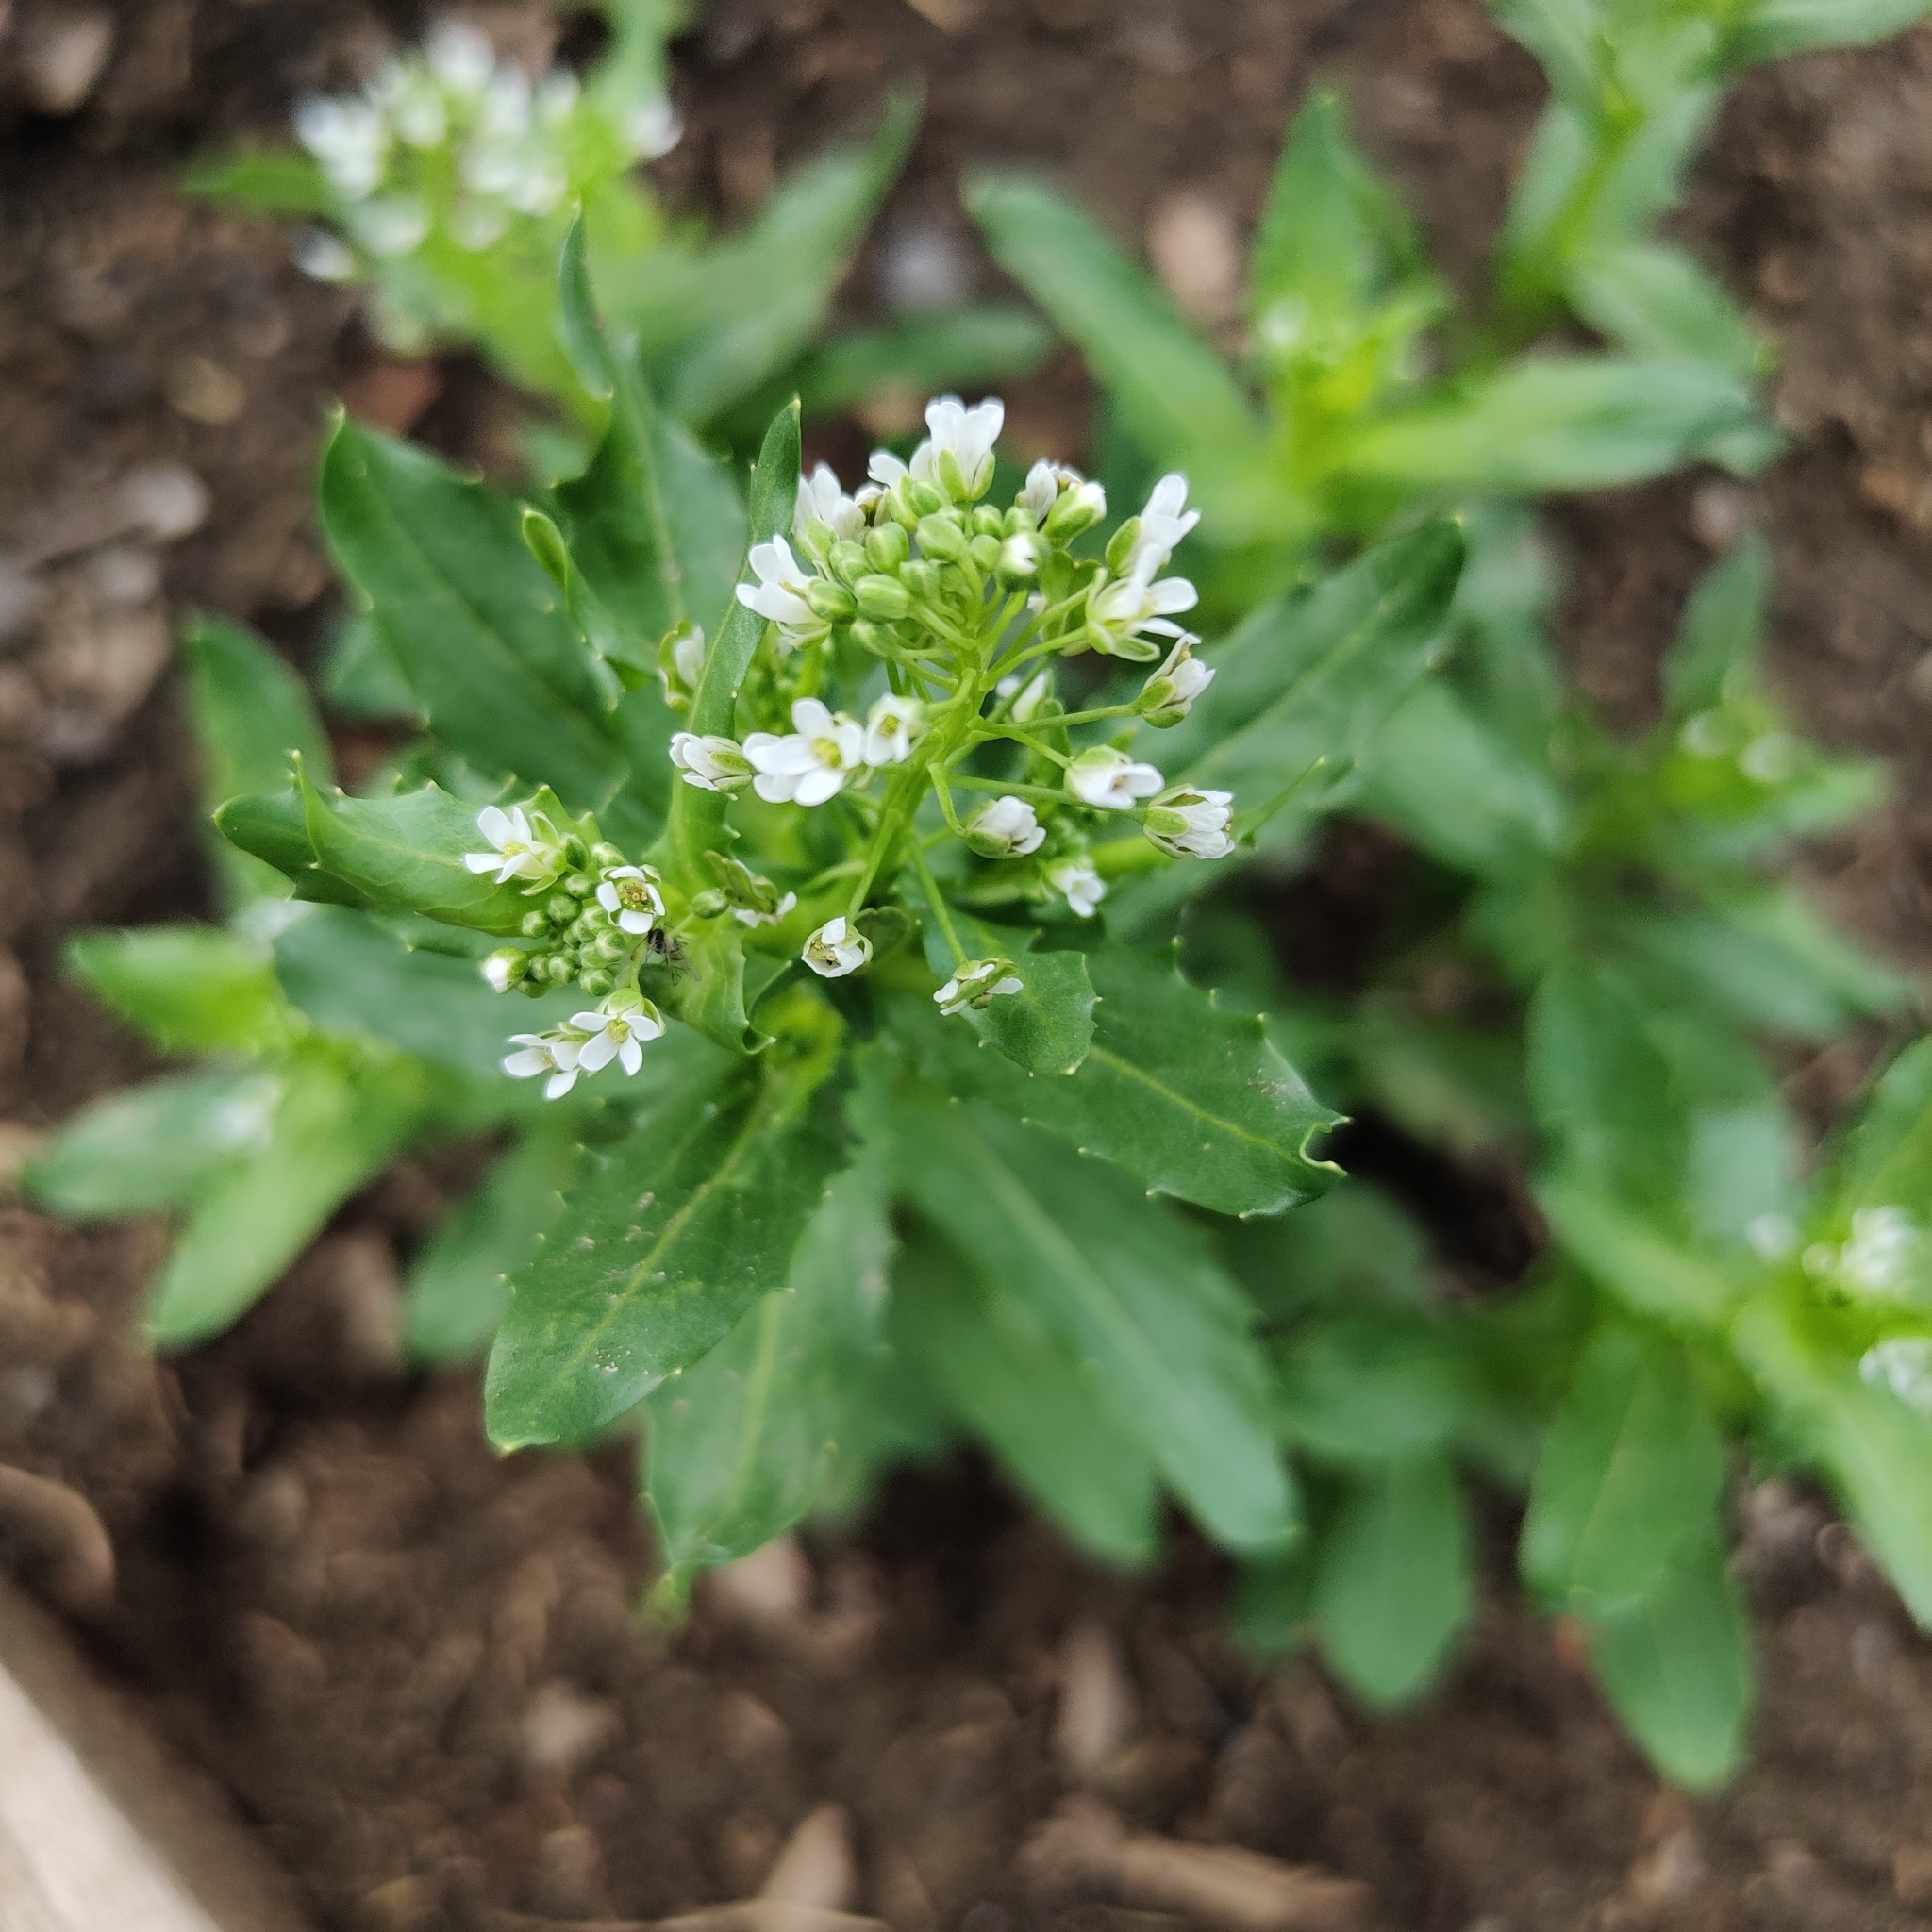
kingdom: Plantae
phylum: Tracheophyta
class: Magnoliopsida
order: Brassicales
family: Brassicaceae
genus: Thlaspi
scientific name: Thlaspi arvense
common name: Field pennycress
